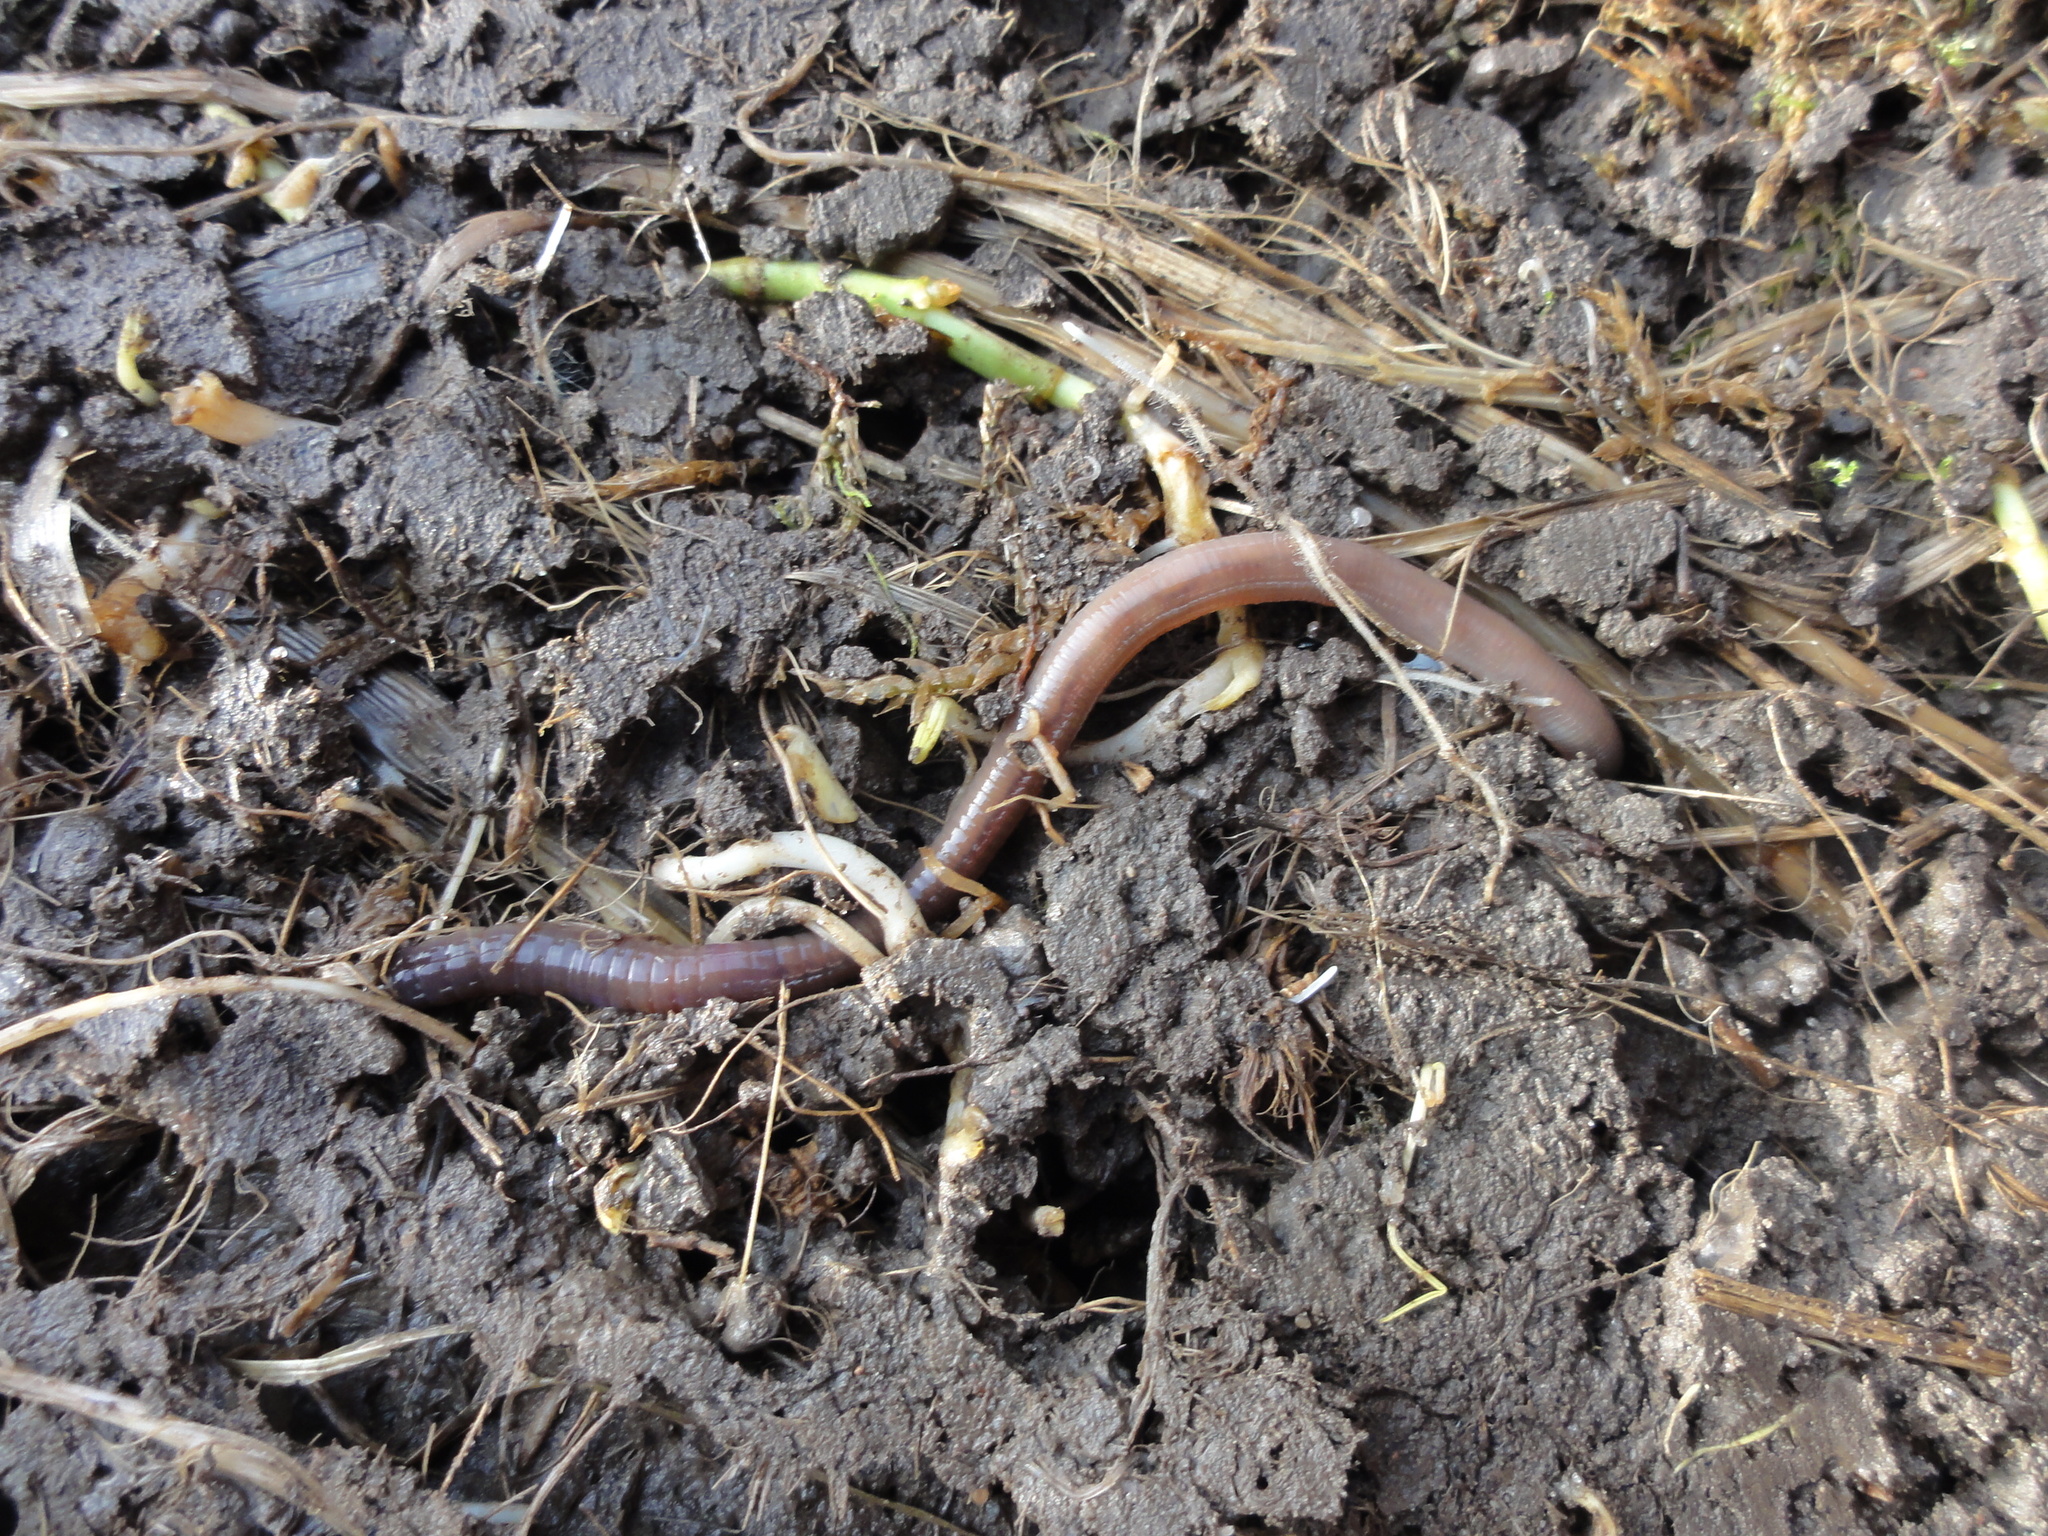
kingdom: Animalia
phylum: Annelida
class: Clitellata
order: Crassiclitellata
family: Lumbricidae
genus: Lumbricus
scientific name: Lumbricus terrestris
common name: Common earthworm
